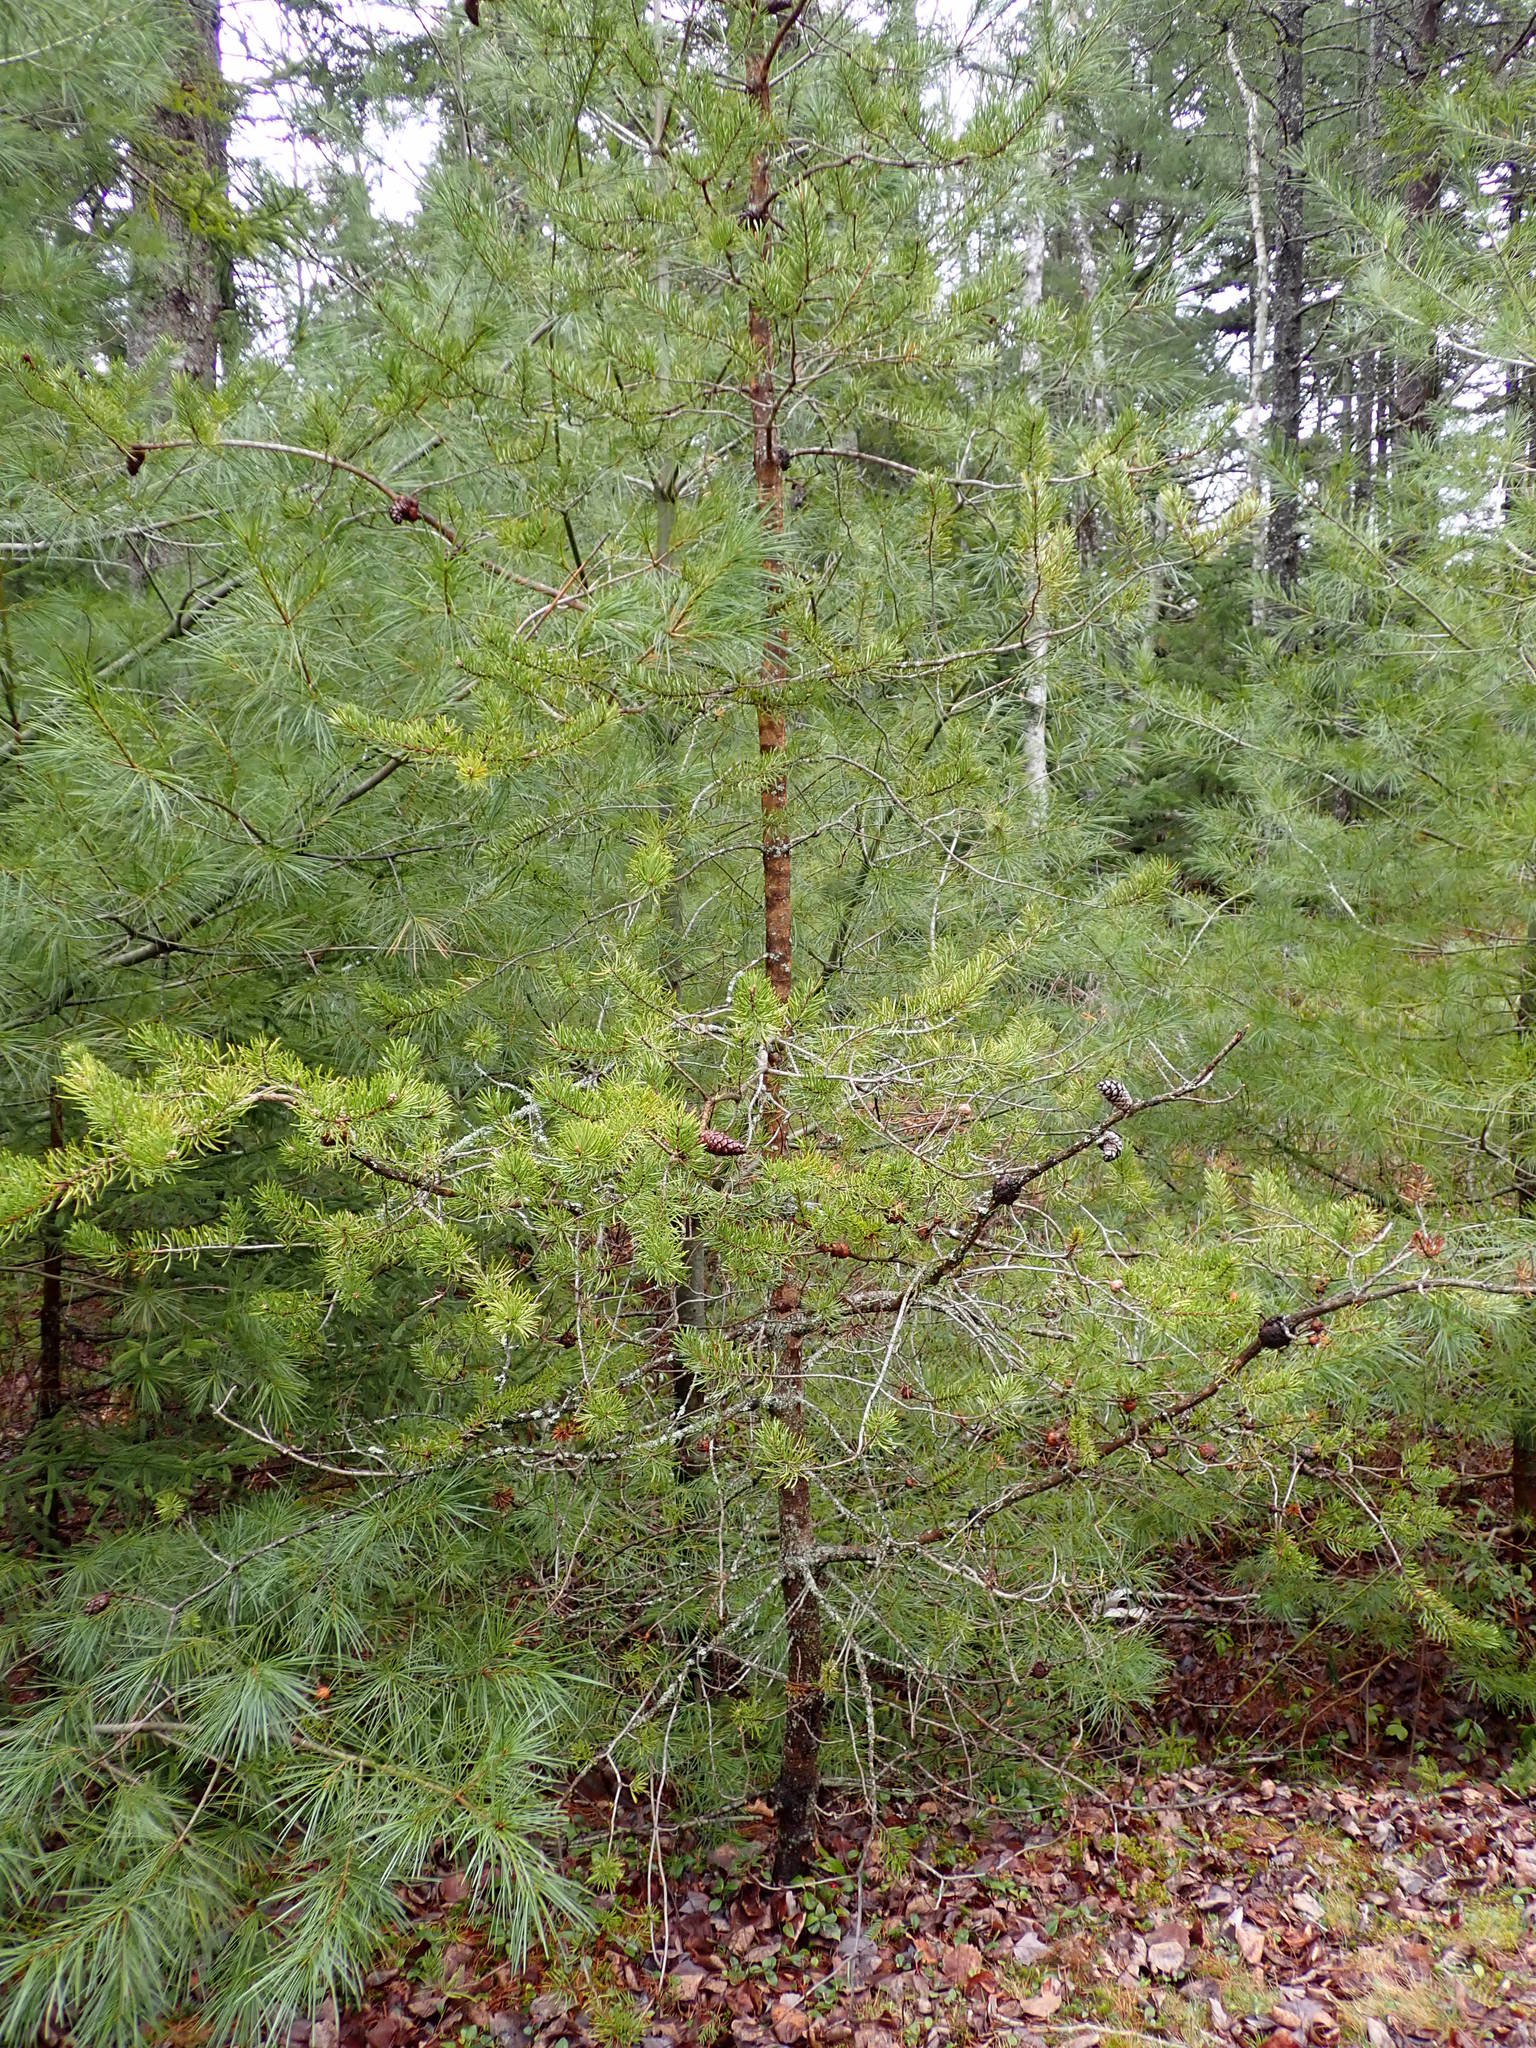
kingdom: Plantae
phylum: Tracheophyta
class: Pinopsida
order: Pinales
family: Pinaceae
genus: Pinus
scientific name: Pinus banksiana
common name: Jack pine
